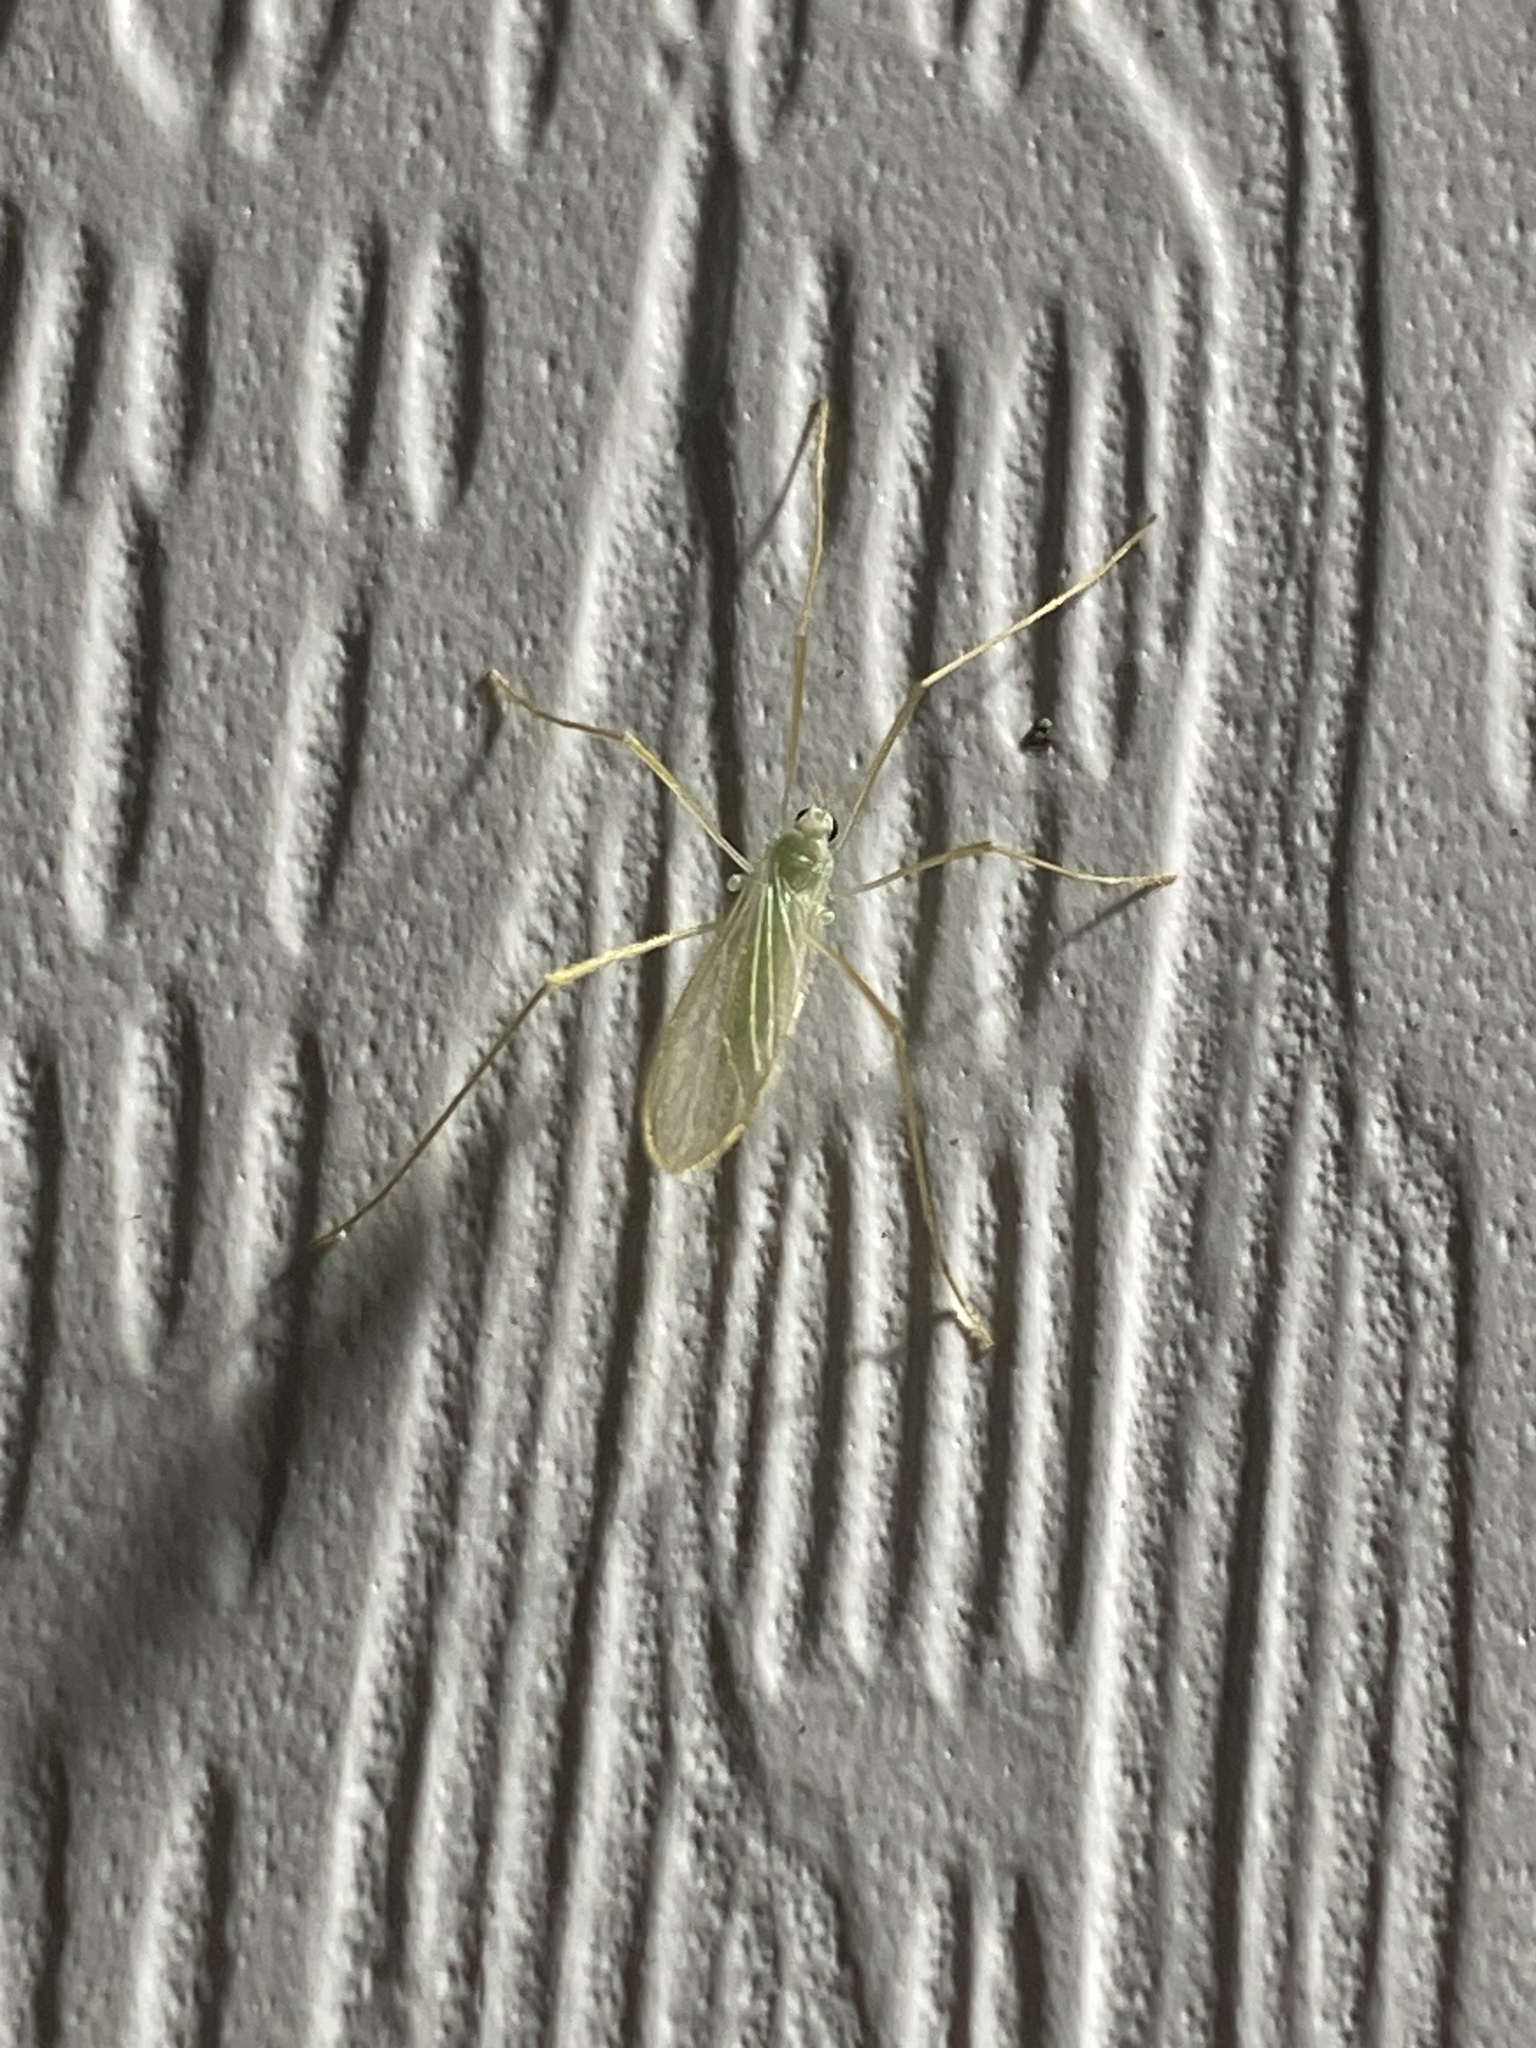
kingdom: Animalia
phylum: Arthropoda
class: Insecta
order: Diptera
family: Limoniidae
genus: Erioptera
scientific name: Erioptera
